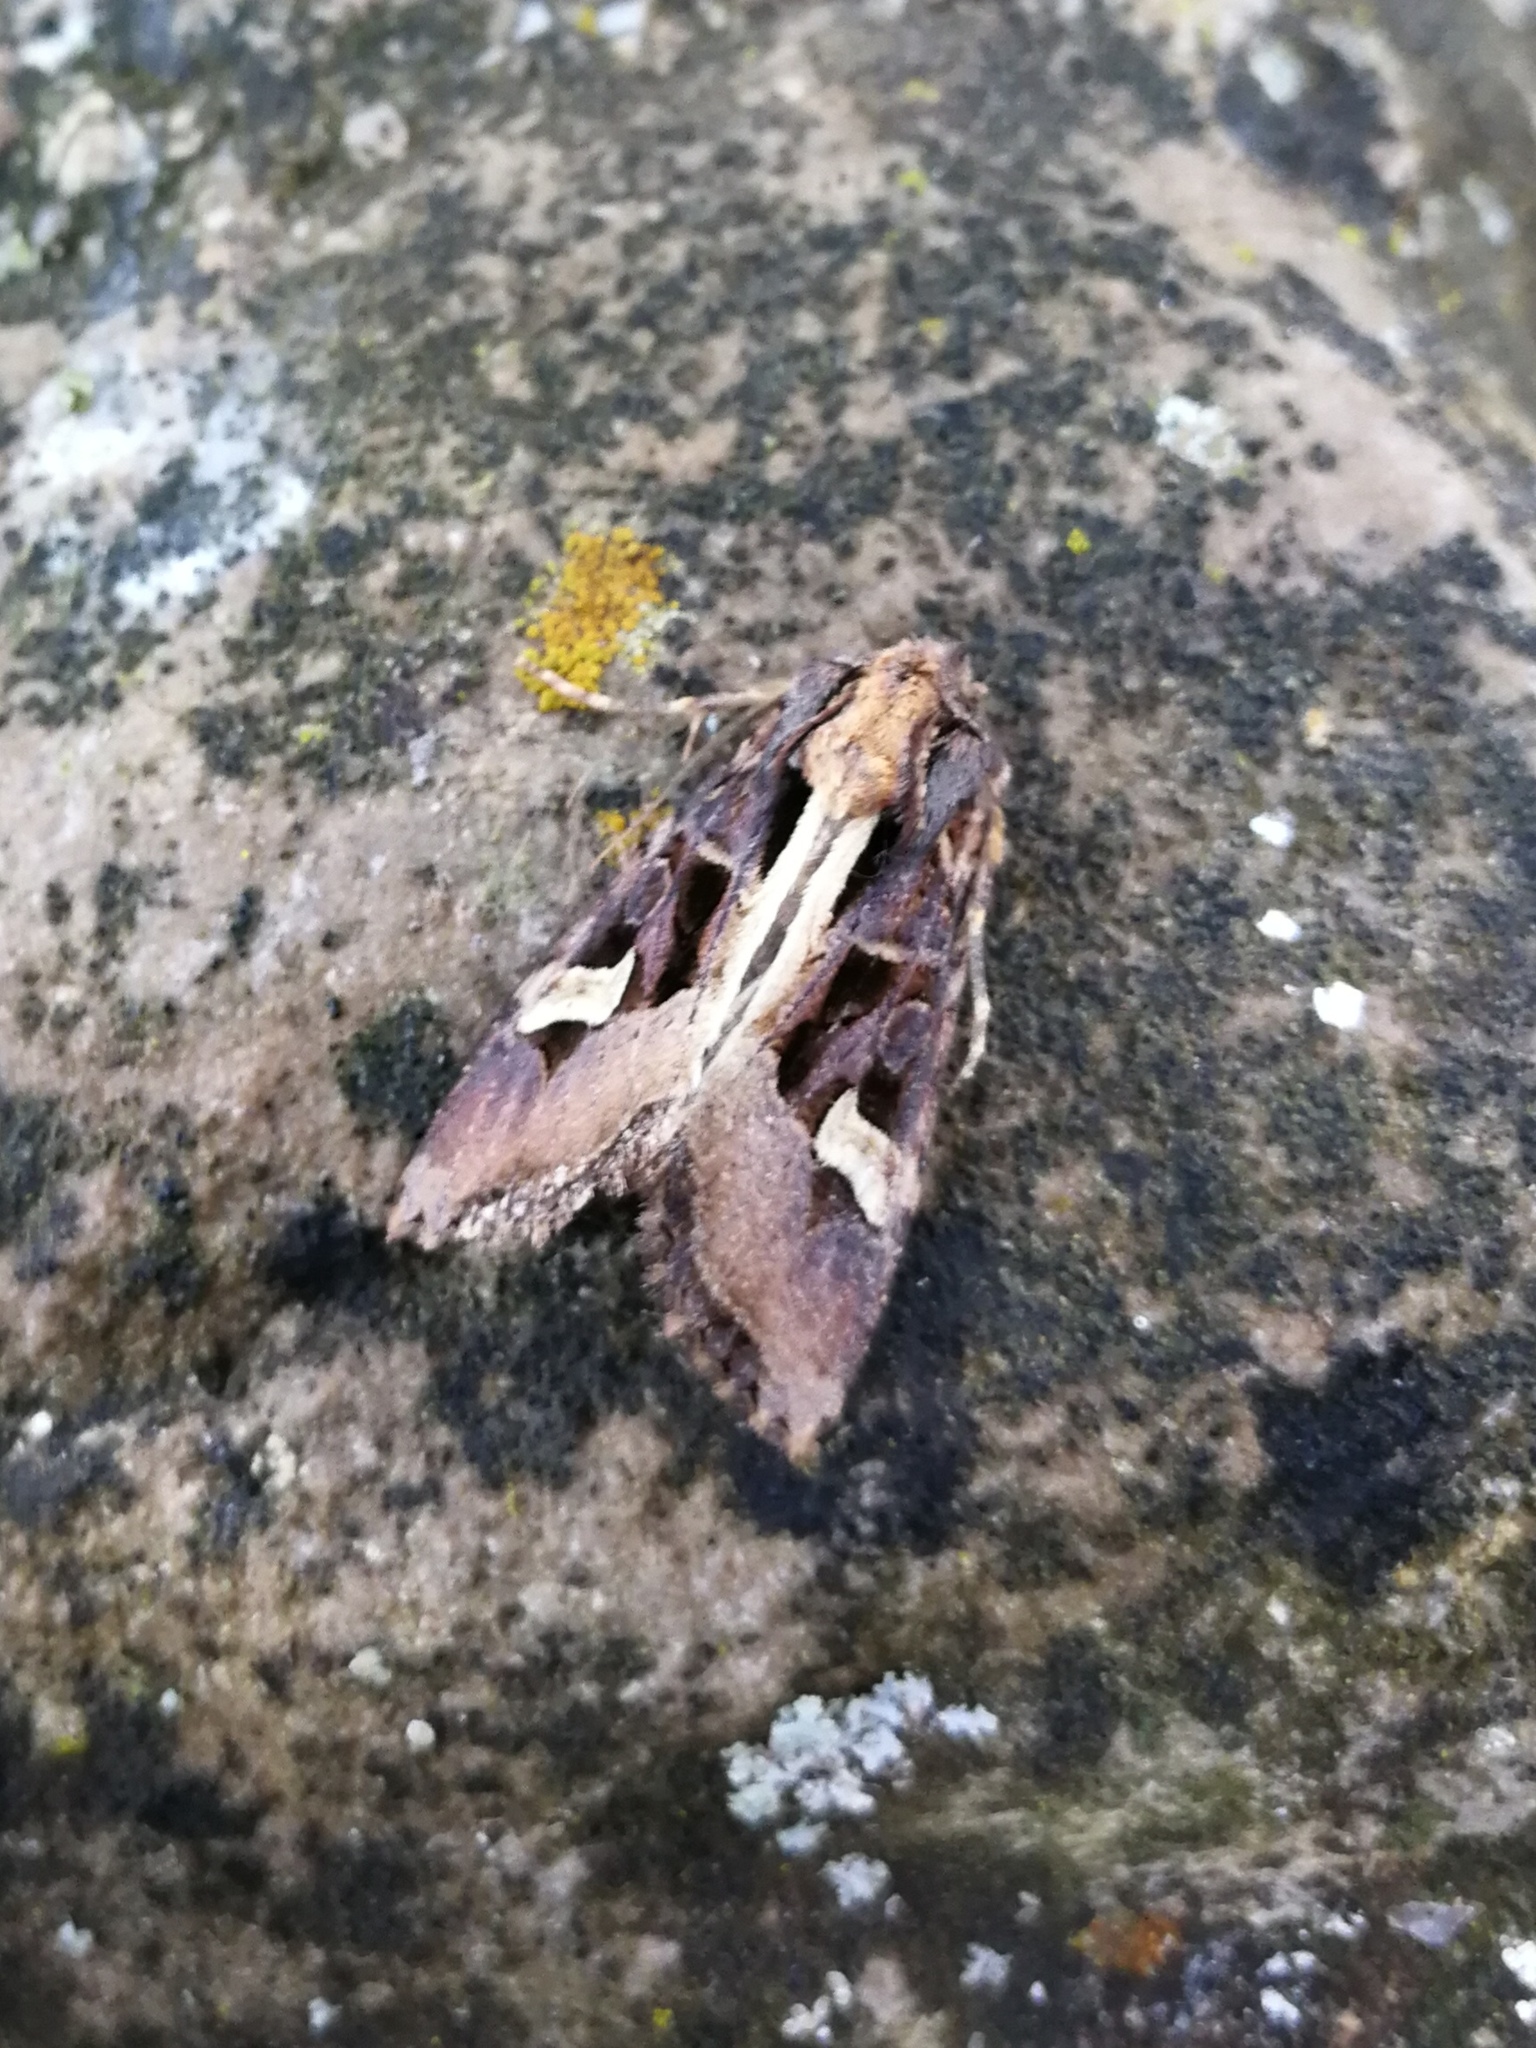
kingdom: Animalia
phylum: Arthropoda
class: Insecta
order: Lepidoptera
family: Noctuidae
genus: Trigonophora
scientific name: Trigonophora flammea
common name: Flame brocade
